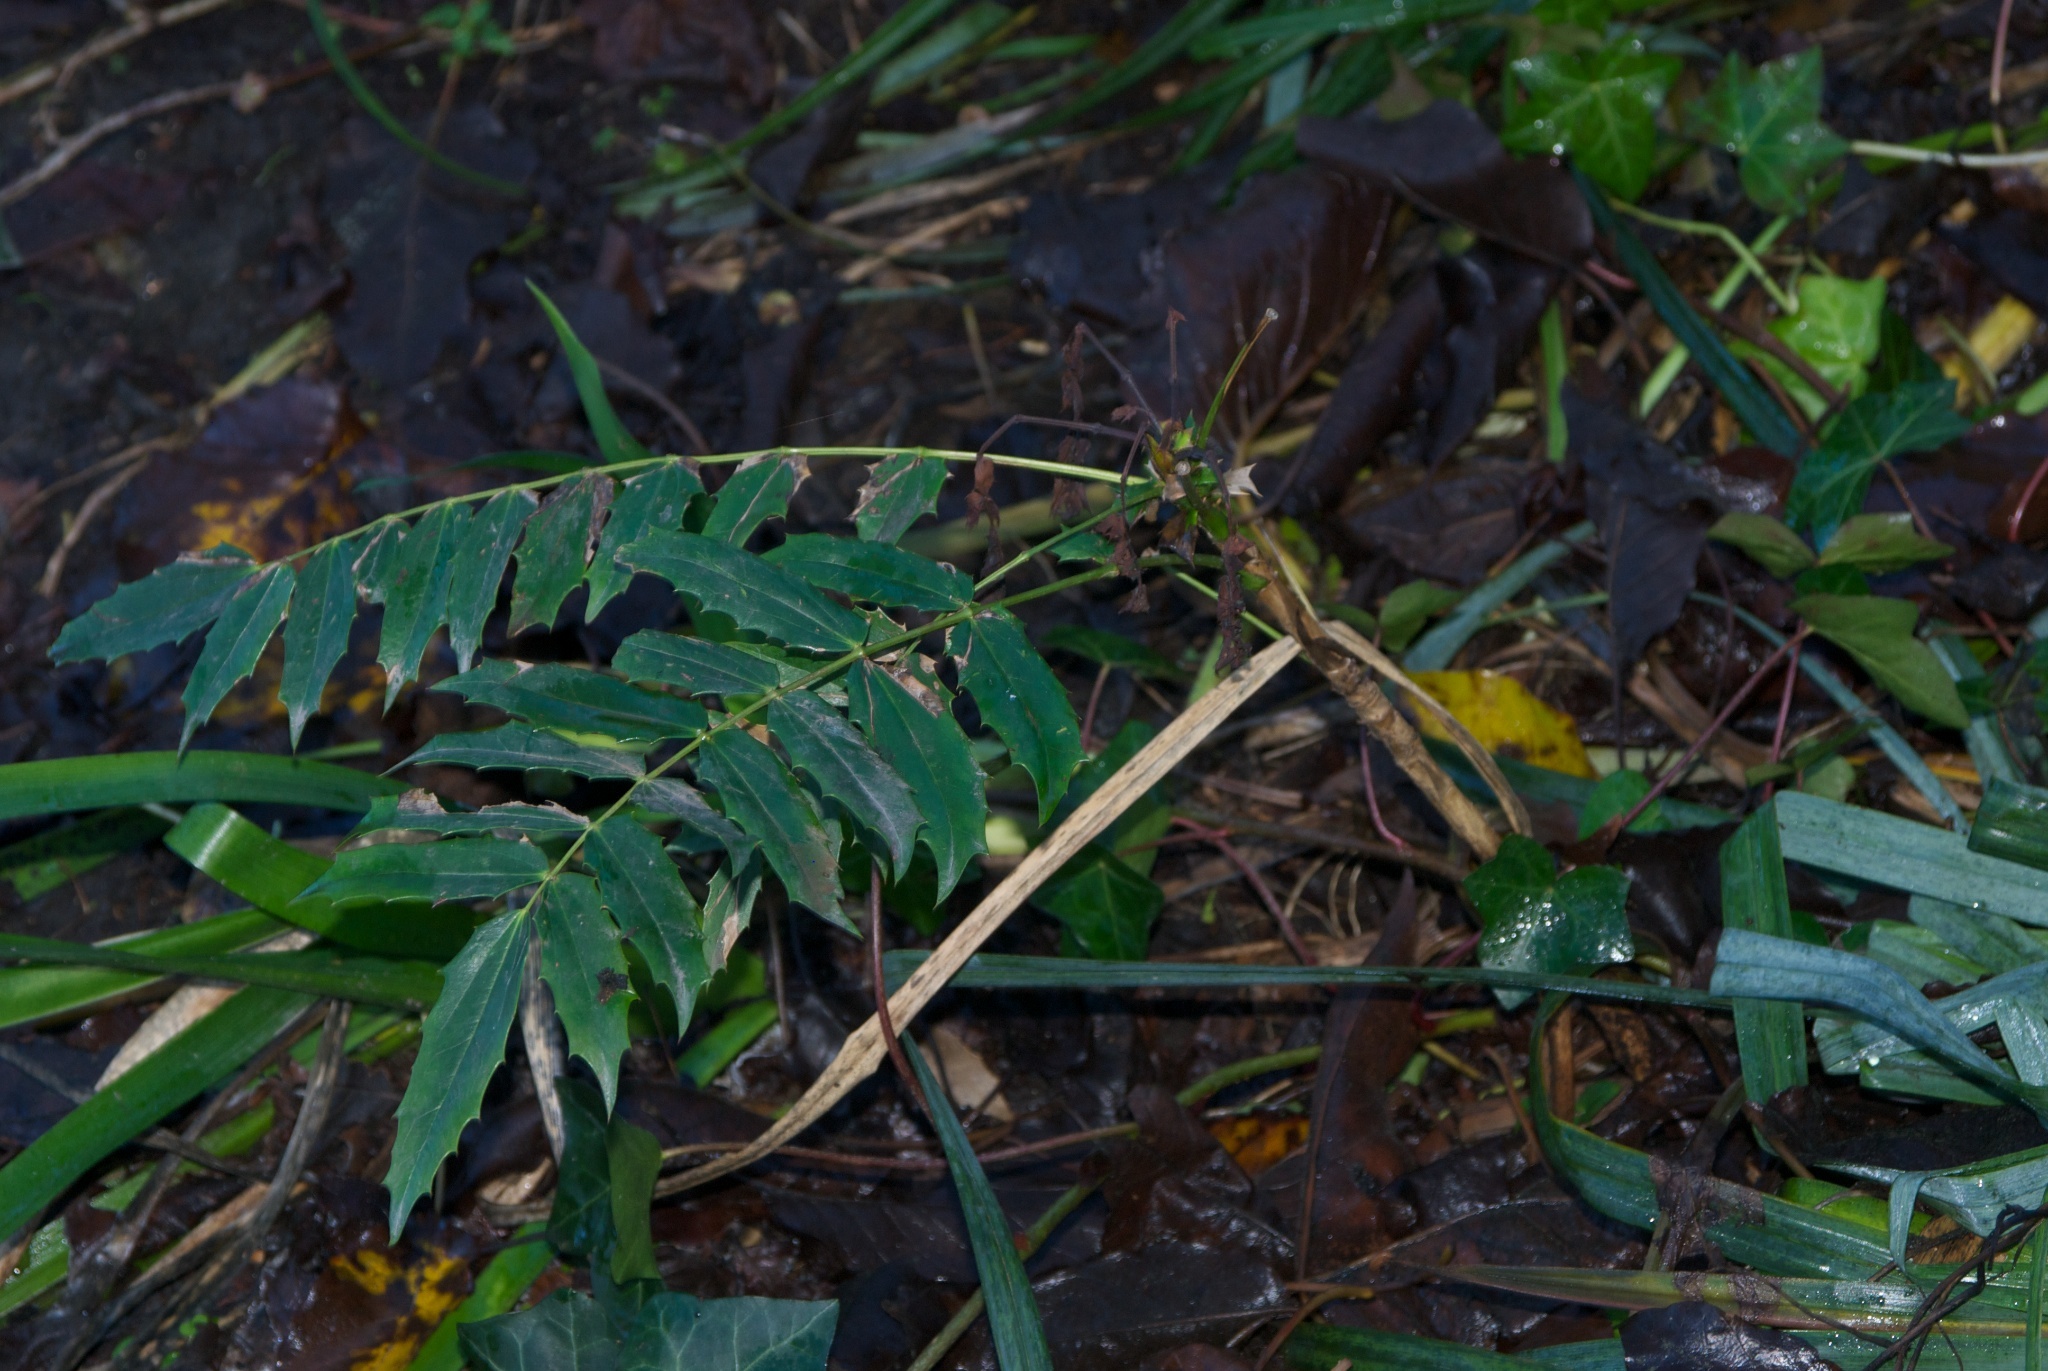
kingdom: Plantae
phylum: Tracheophyta
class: Magnoliopsida
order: Ranunculales
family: Berberidaceae
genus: Mahonia
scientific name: Mahonia oiwakensis
